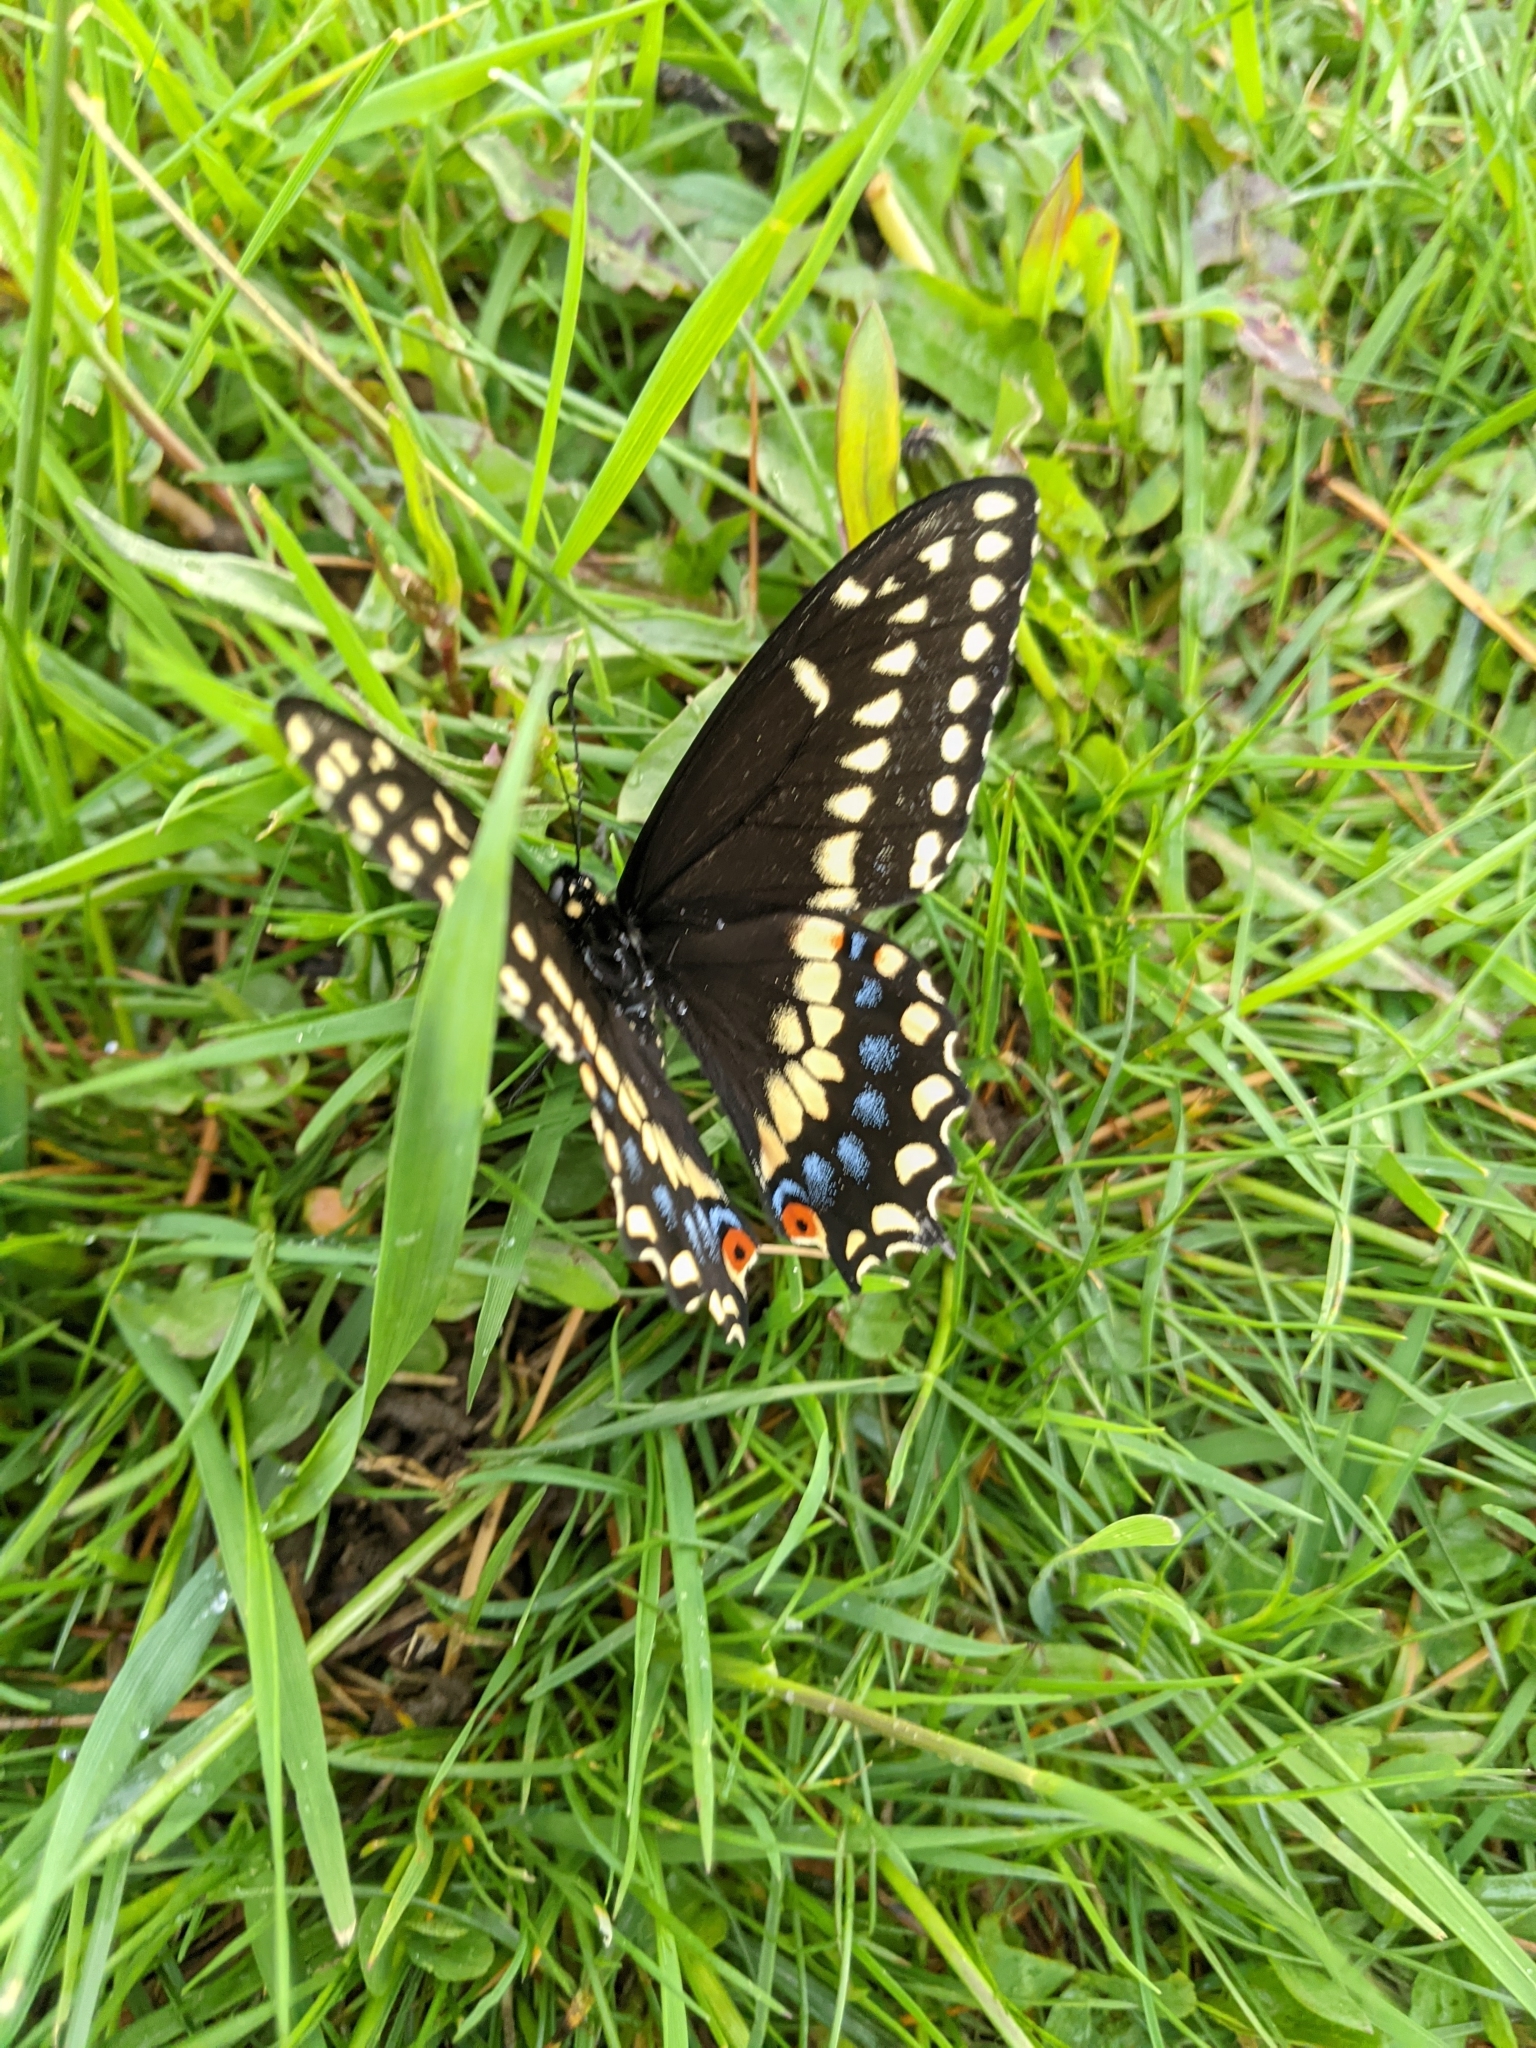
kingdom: Animalia
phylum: Arthropoda
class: Insecta
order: Lepidoptera
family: Papilionidae
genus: Papilio
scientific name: Papilio polyxenes
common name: Black swallowtail
